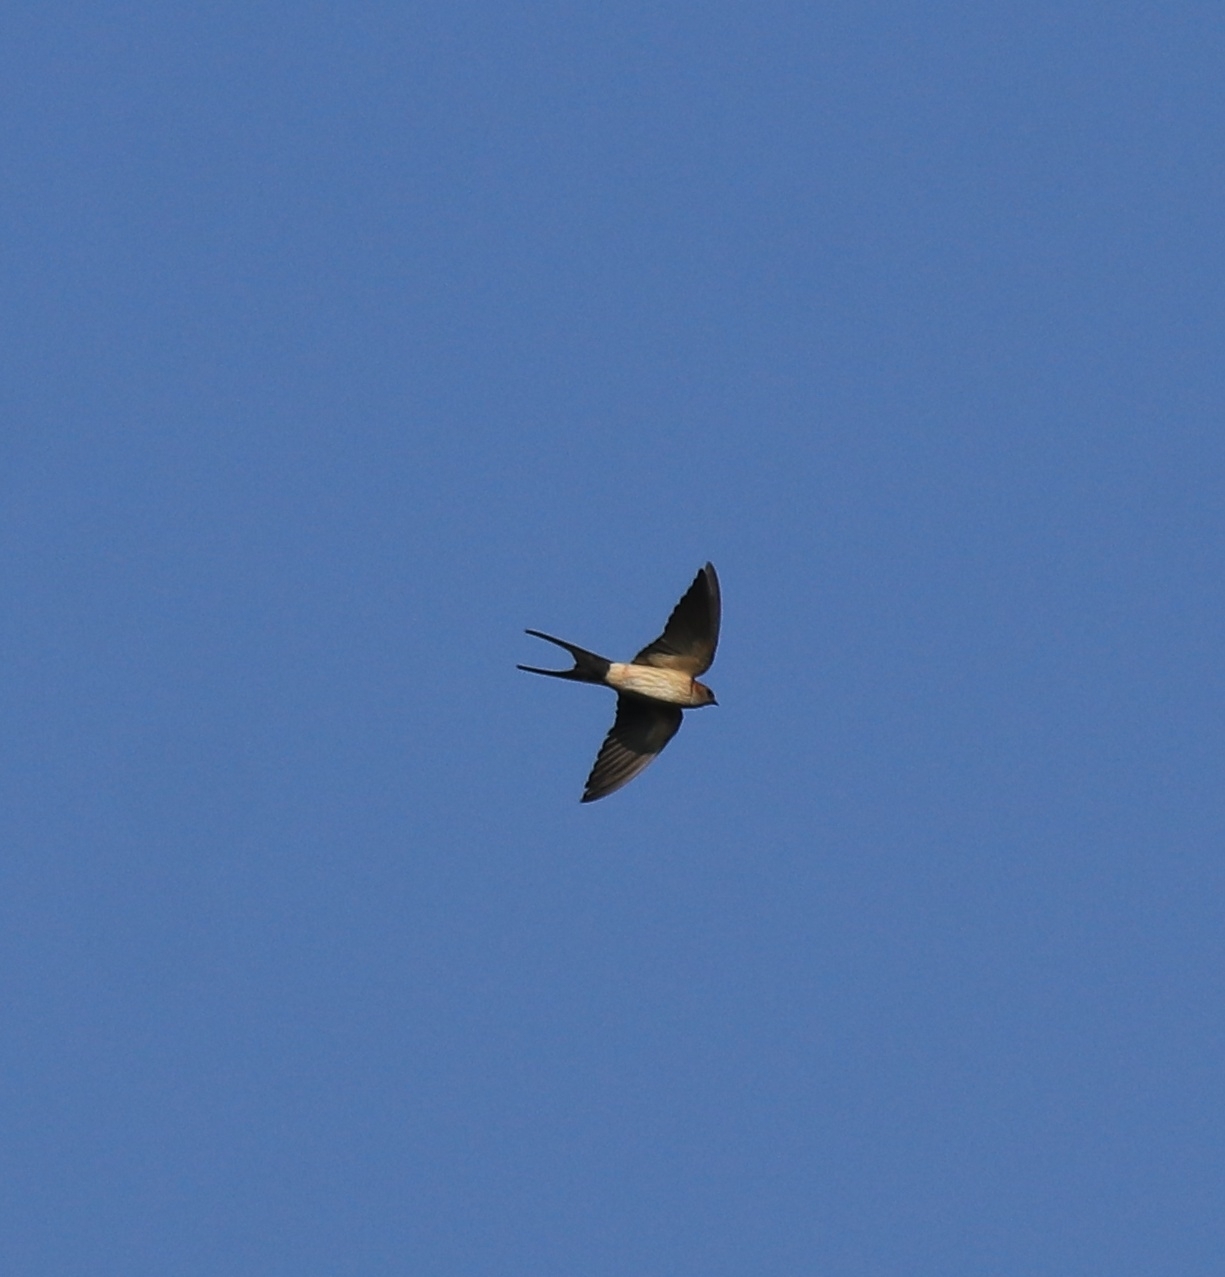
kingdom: Animalia
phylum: Chordata
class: Aves
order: Passeriformes
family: Hirundinidae
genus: Cecropis
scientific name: Cecropis daurica
